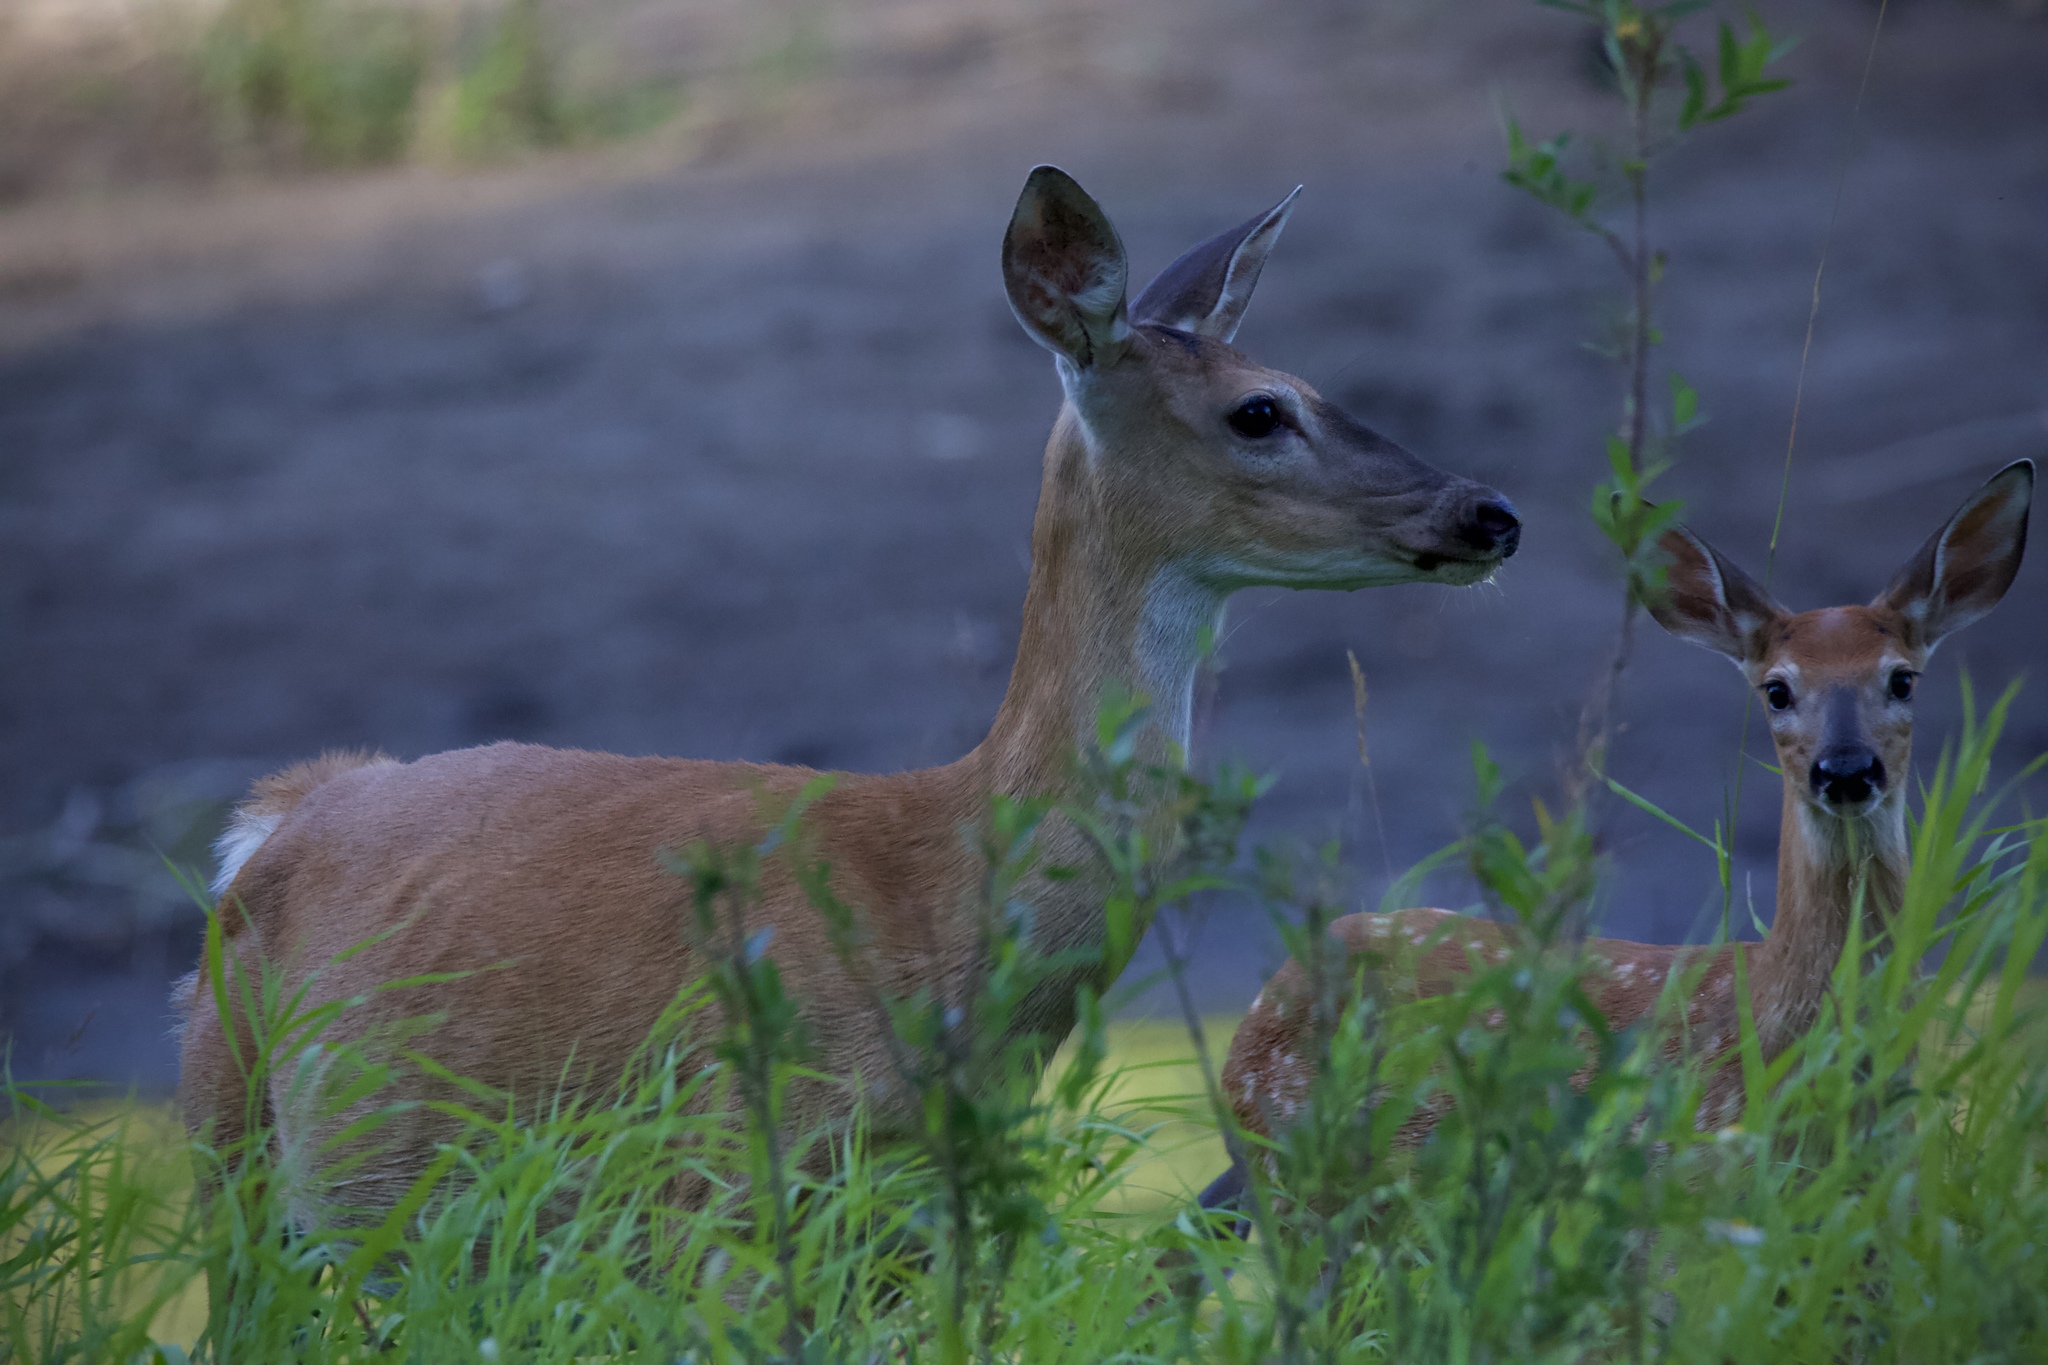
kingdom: Animalia
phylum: Chordata
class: Mammalia
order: Artiodactyla
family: Cervidae
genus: Odocoileus
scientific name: Odocoileus virginianus
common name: White-tailed deer
